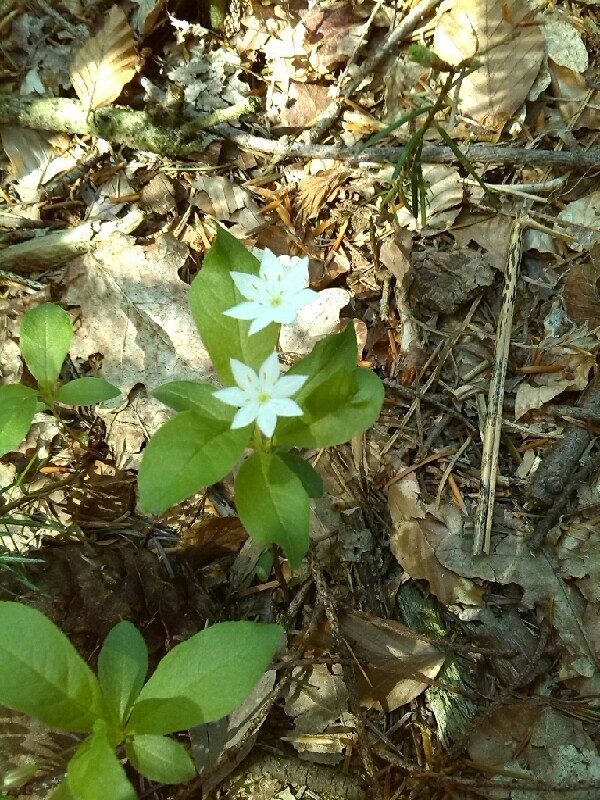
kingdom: Plantae
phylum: Tracheophyta
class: Magnoliopsida
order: Ericales
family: Primulaceae
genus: Lysimachia
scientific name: Lysimachia europaea
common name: Arctic starflower
